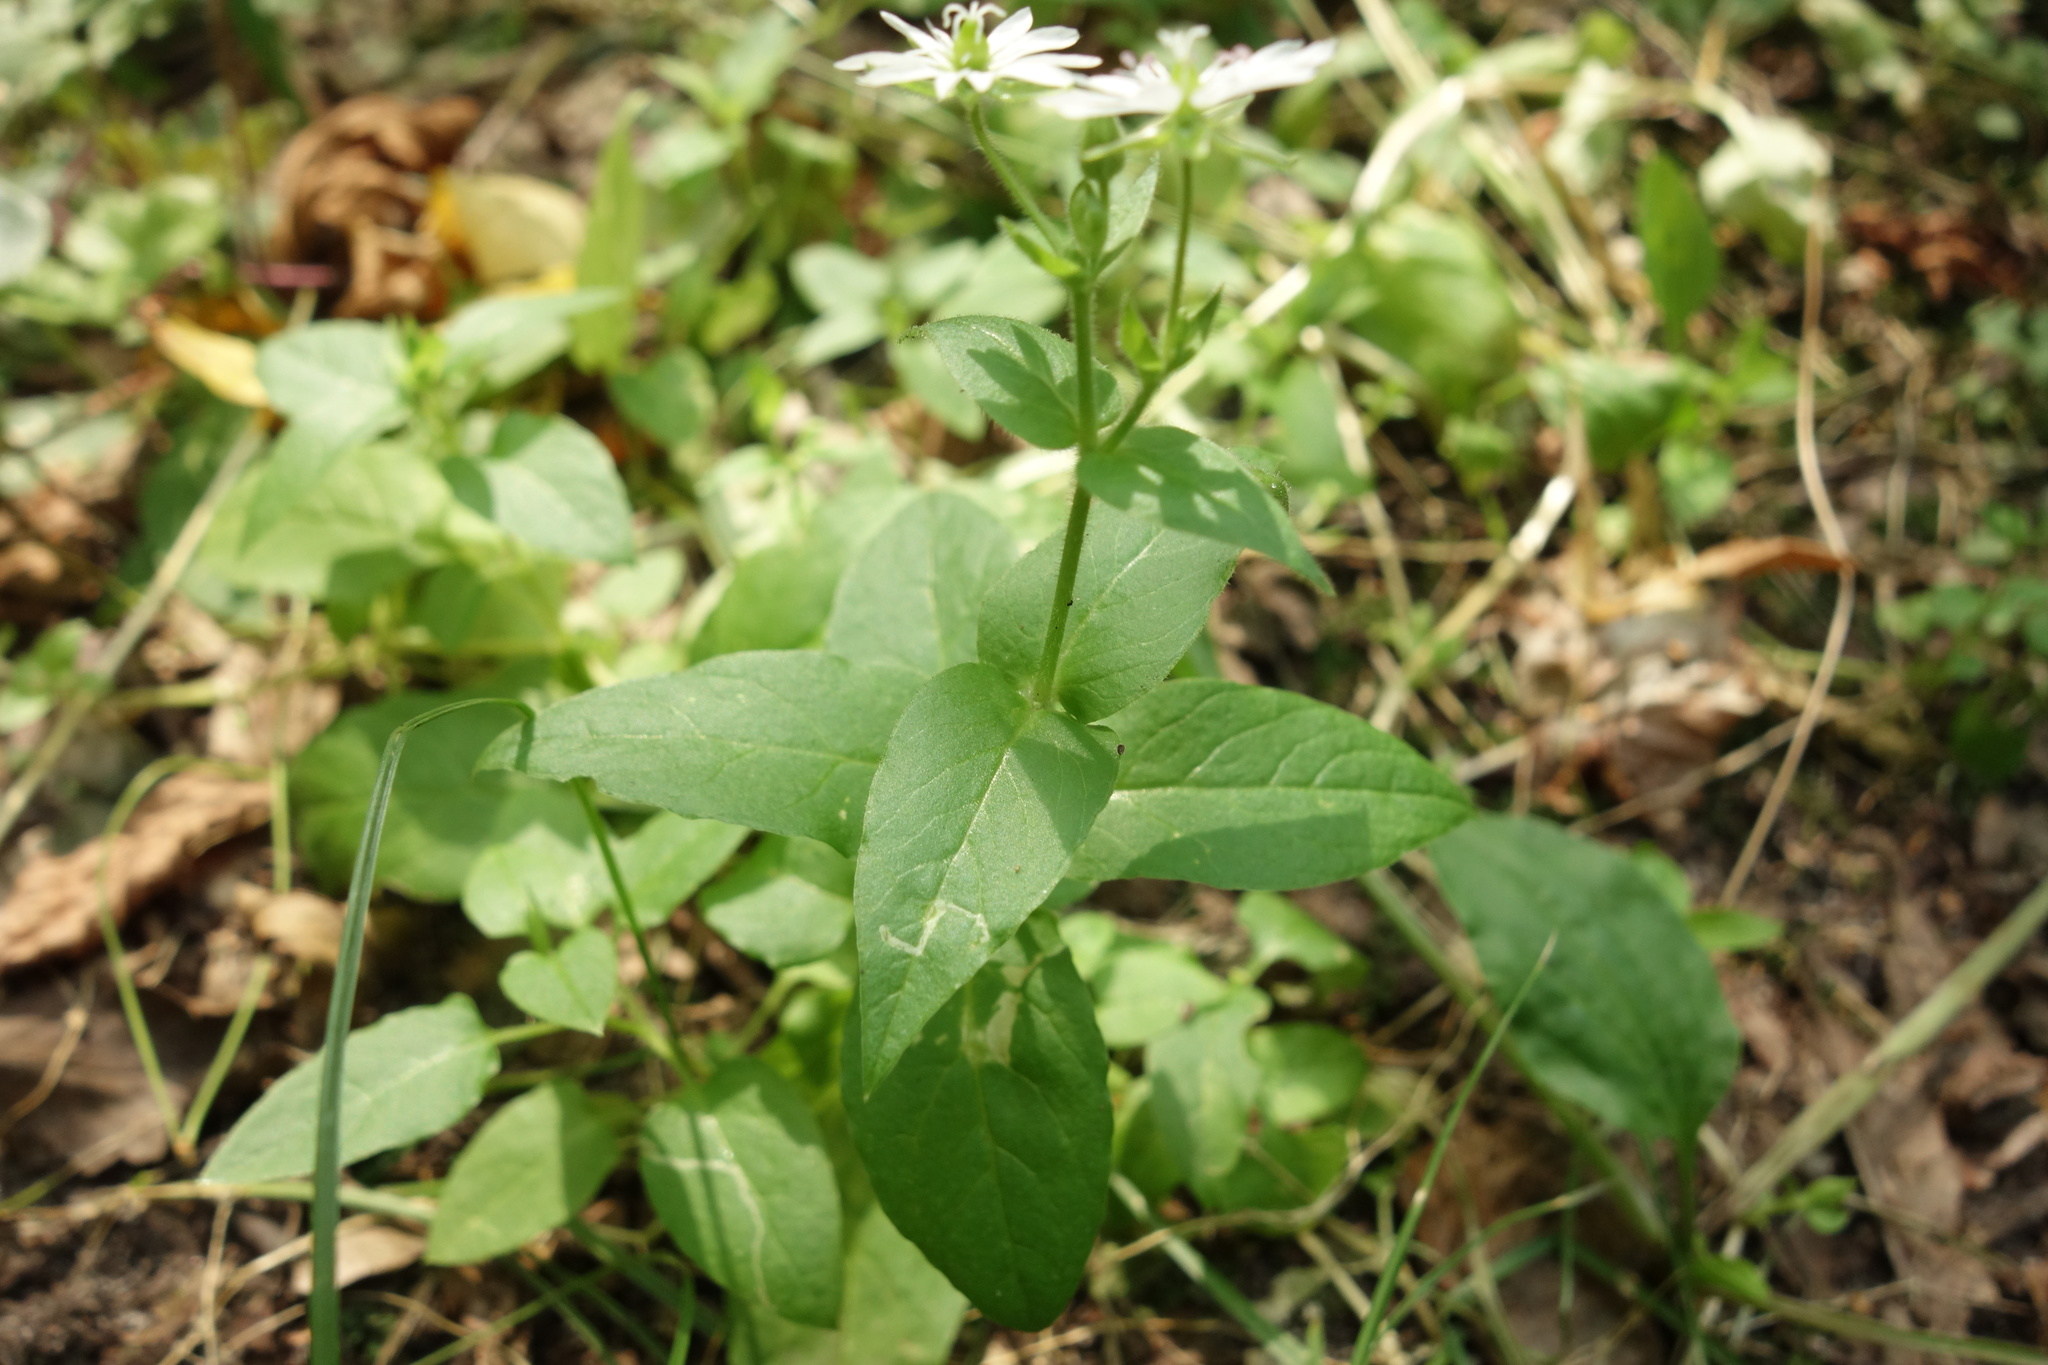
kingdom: Plantae
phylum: Tracheophyta
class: Magnoliopsida
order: Caryophyllales
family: Caryophyllaceae
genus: Stellaria
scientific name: Stellaria aquatica
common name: Water chickweed
